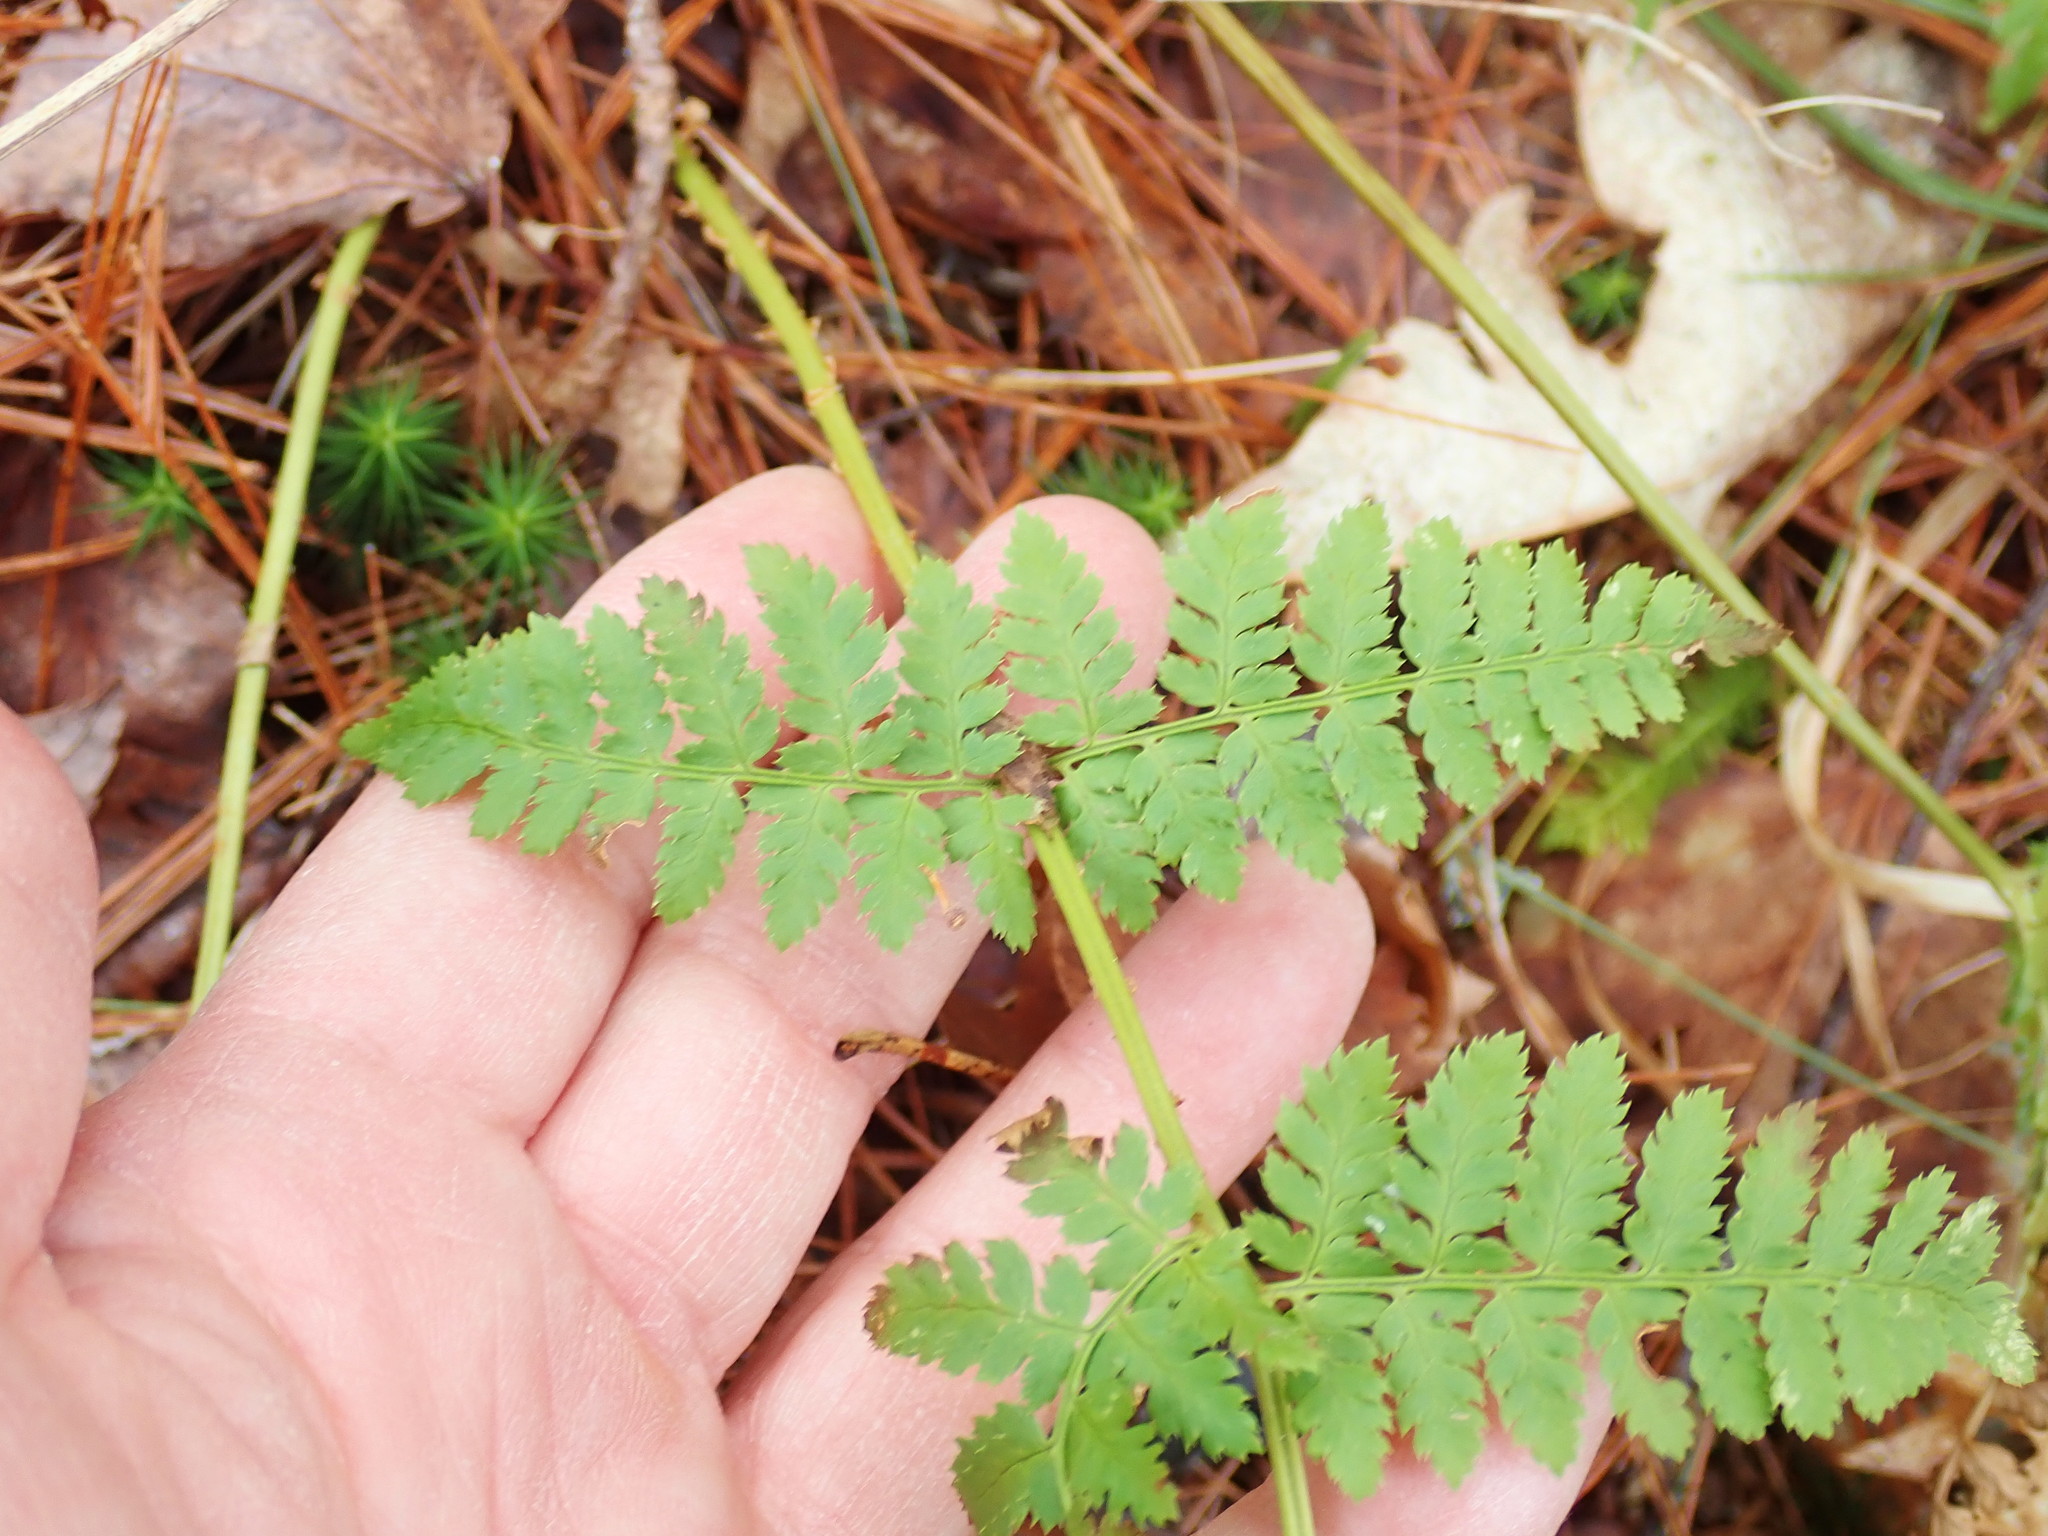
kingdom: Plantae
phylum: Tracheophyta
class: Polypodiopsida
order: Polypodiales
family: Dryopteridaceae
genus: Dryopteris
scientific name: Dryopteris intermedia
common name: Evergreen wood fern
